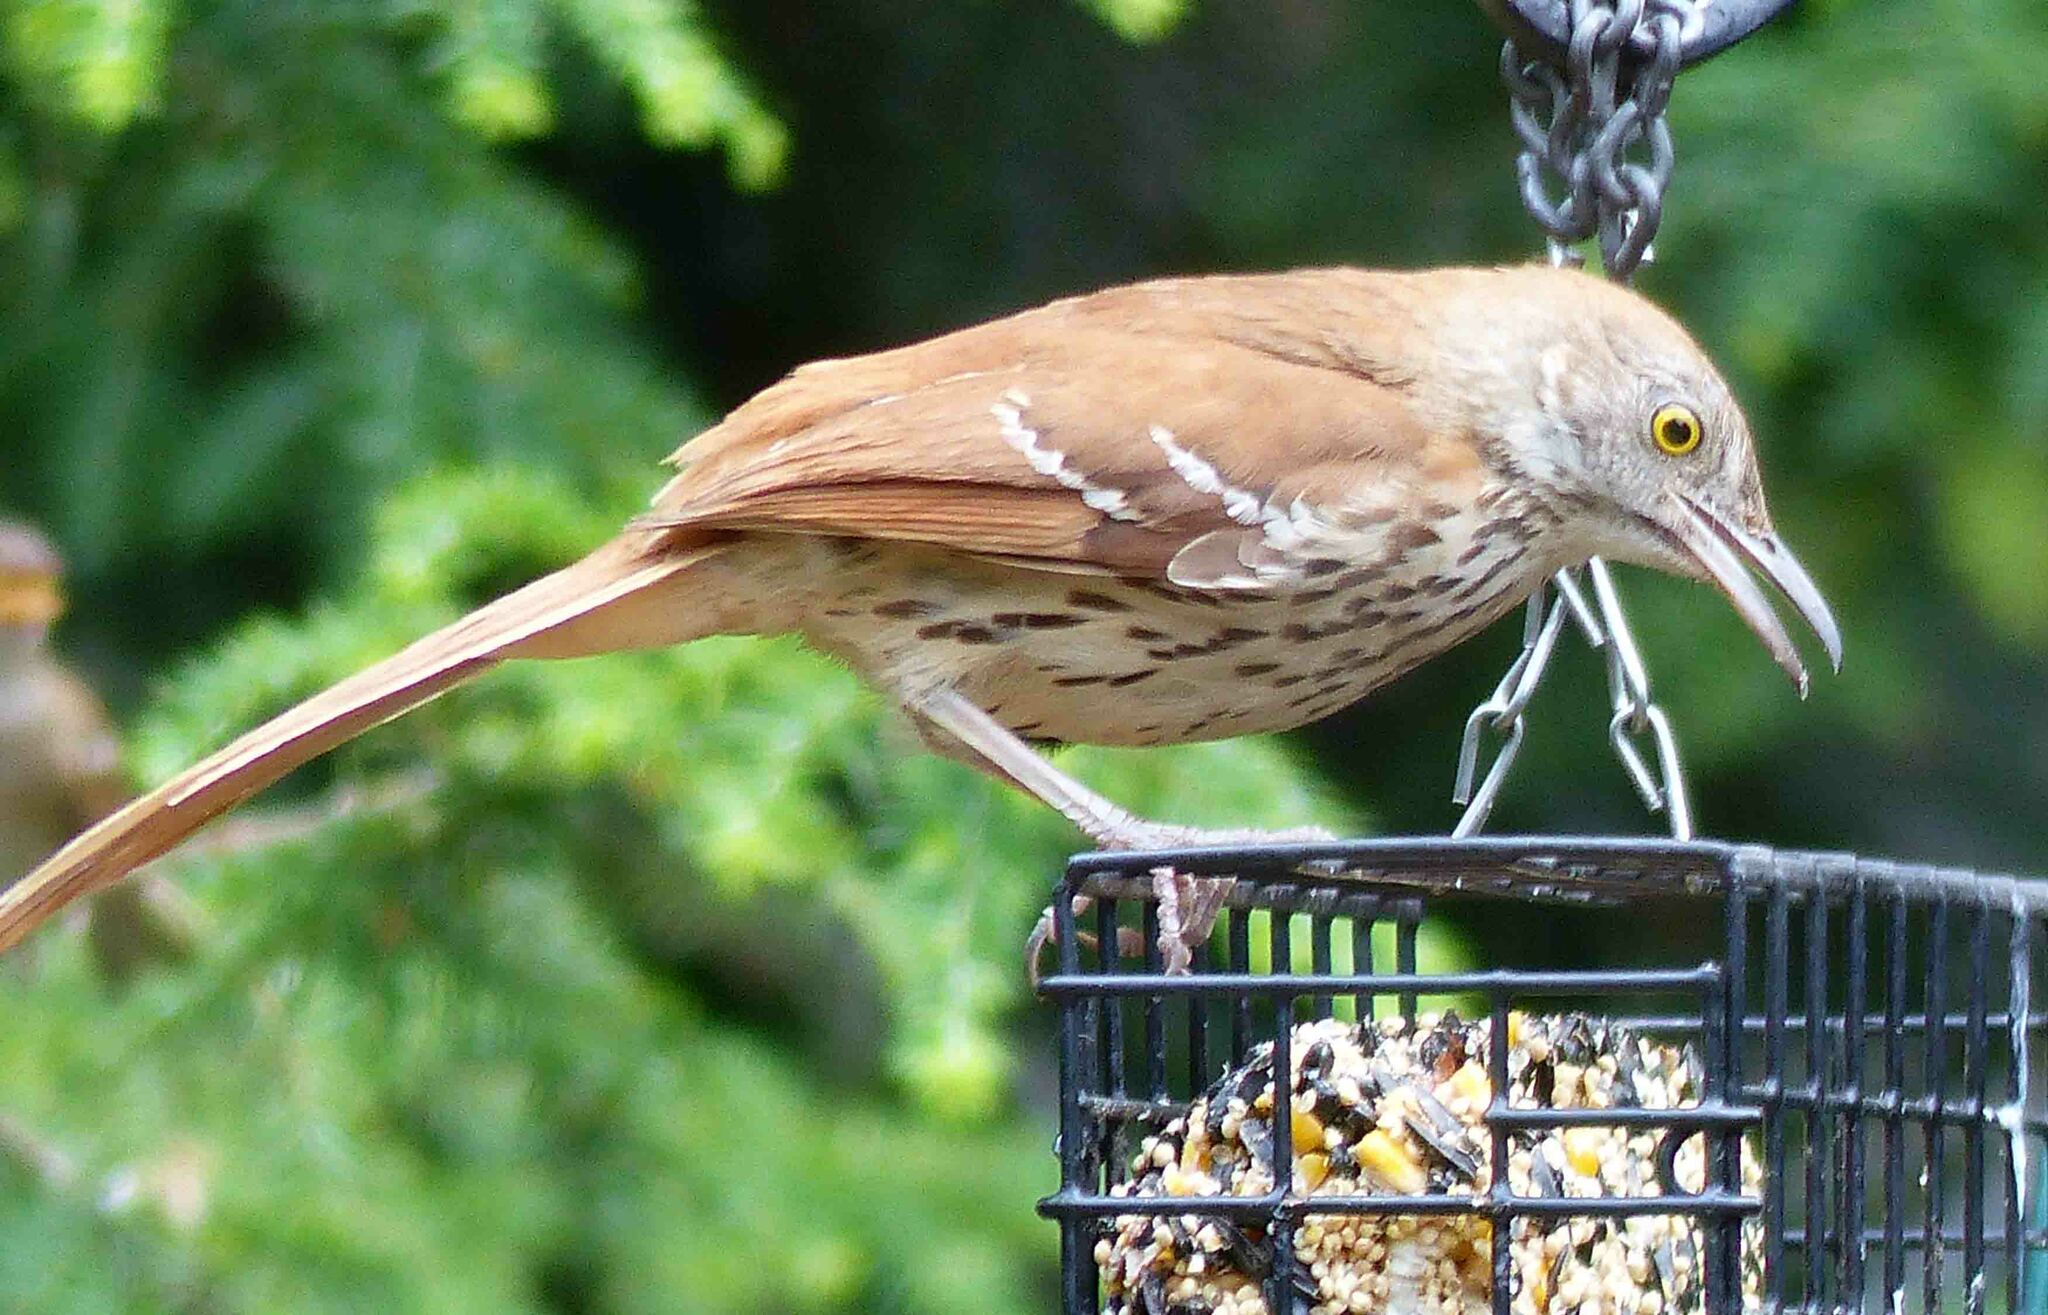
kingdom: Animalia
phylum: Chordata
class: Aves
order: Passeriformes
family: Mimidae
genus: Toxostoma
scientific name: Toxostoma rufum
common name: Brown thrasher
